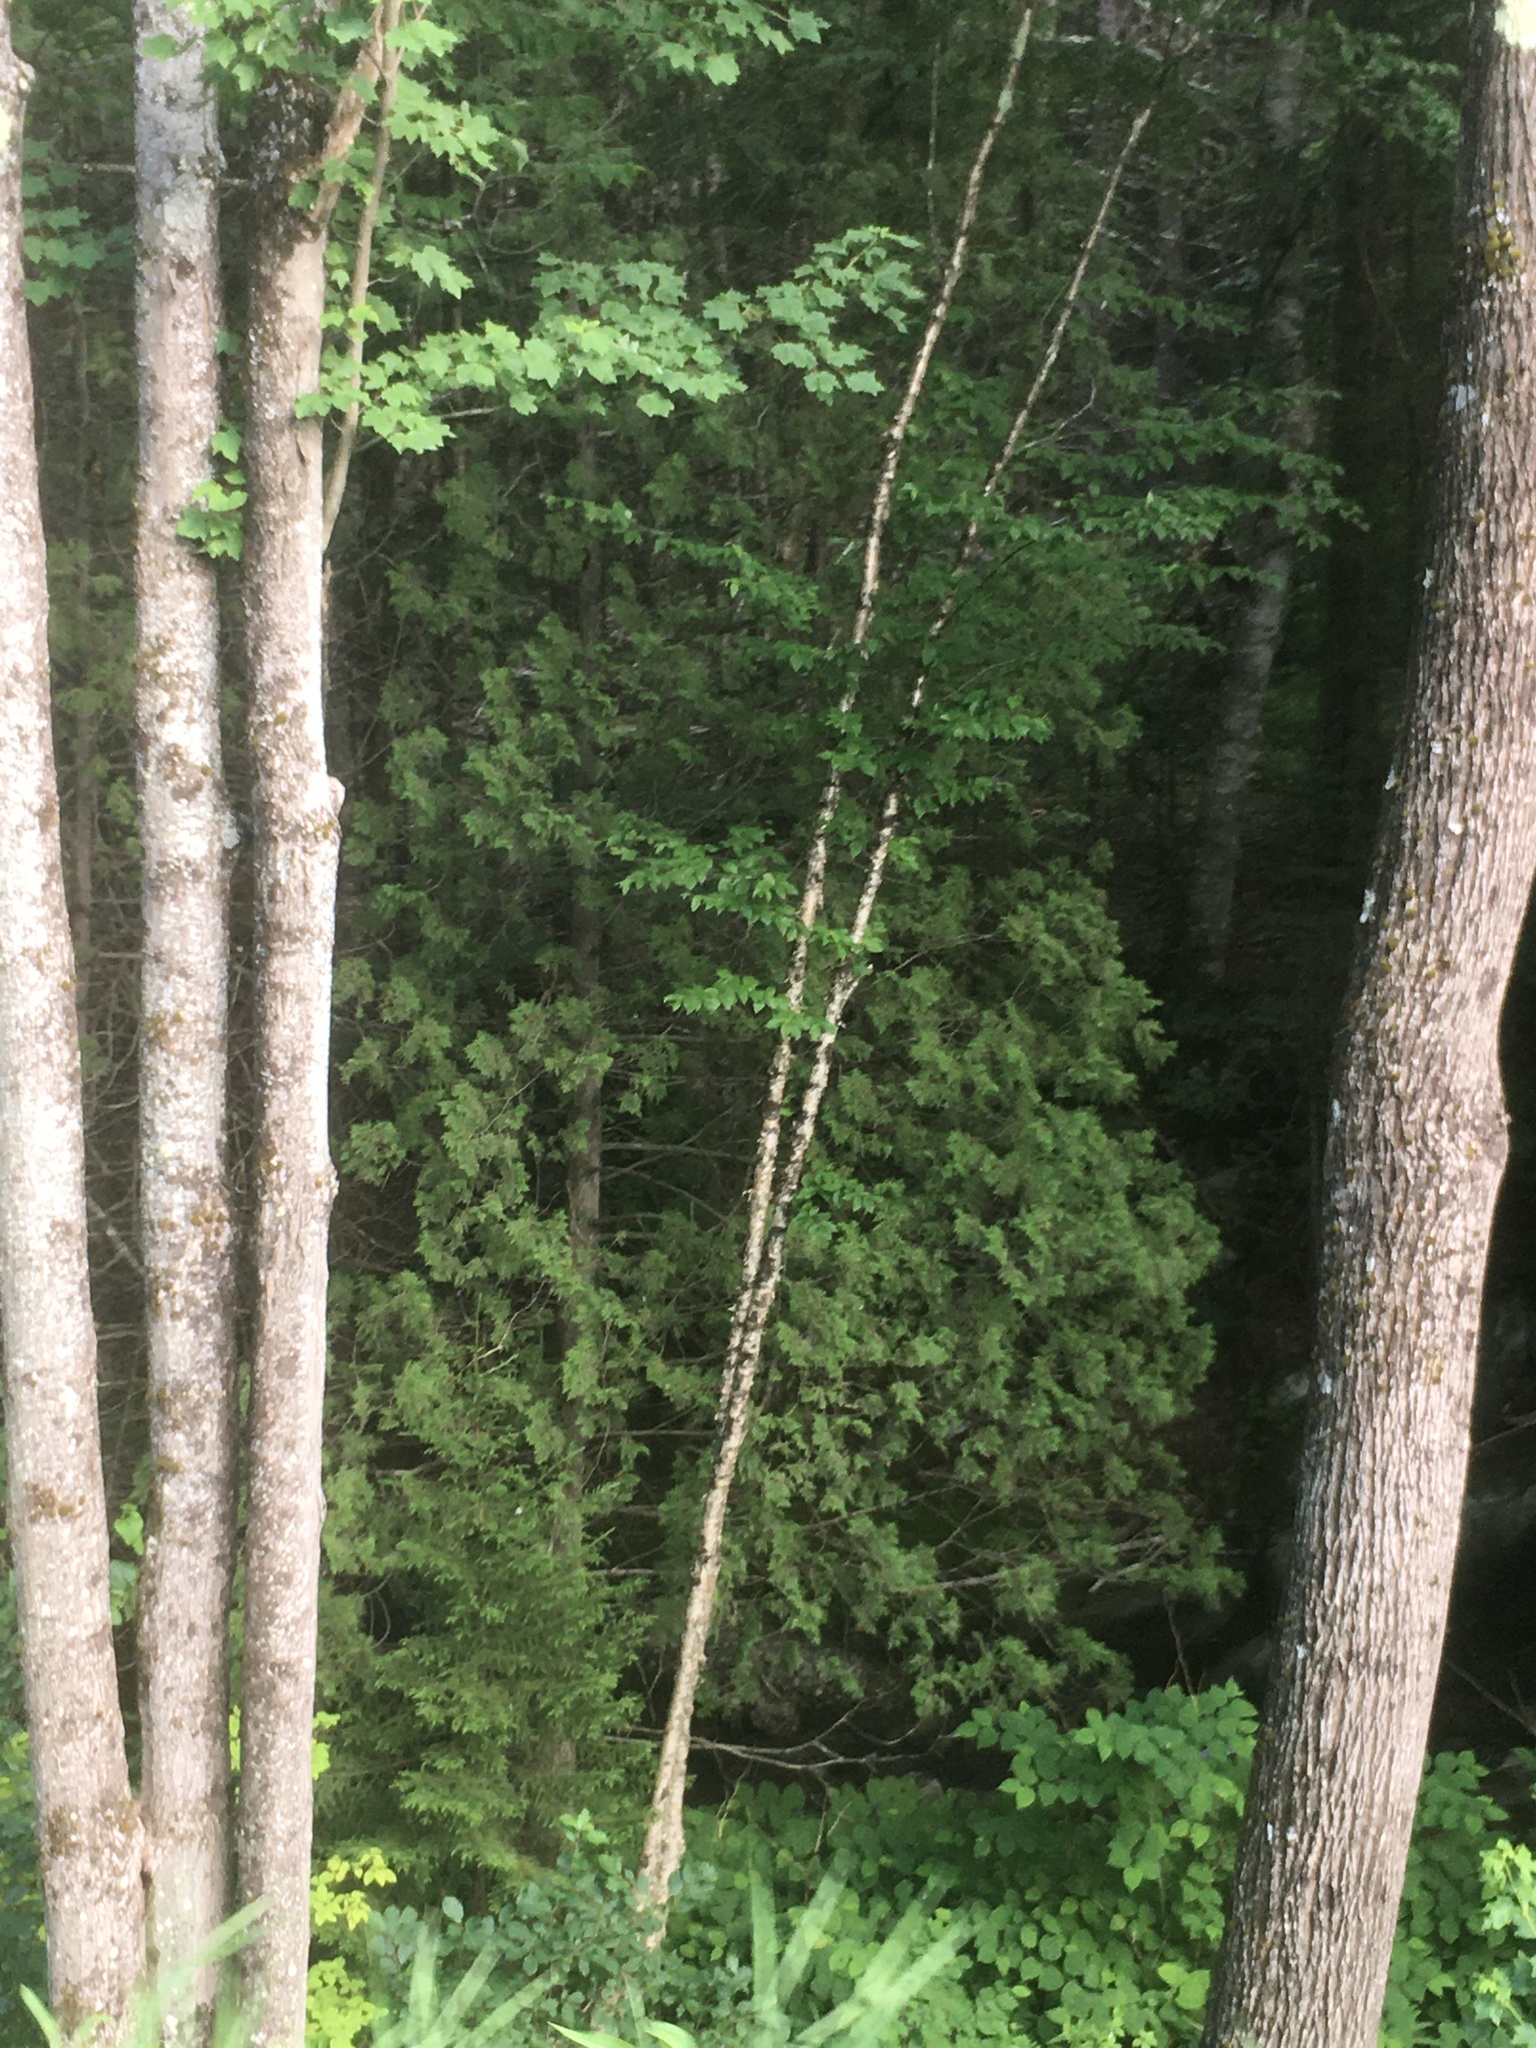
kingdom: Plantae
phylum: Tracheophyta
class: Pinopsida
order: Pinales
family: Cupressaceae
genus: Thuja
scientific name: Thuja occidentalis
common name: Northern white-cedar
